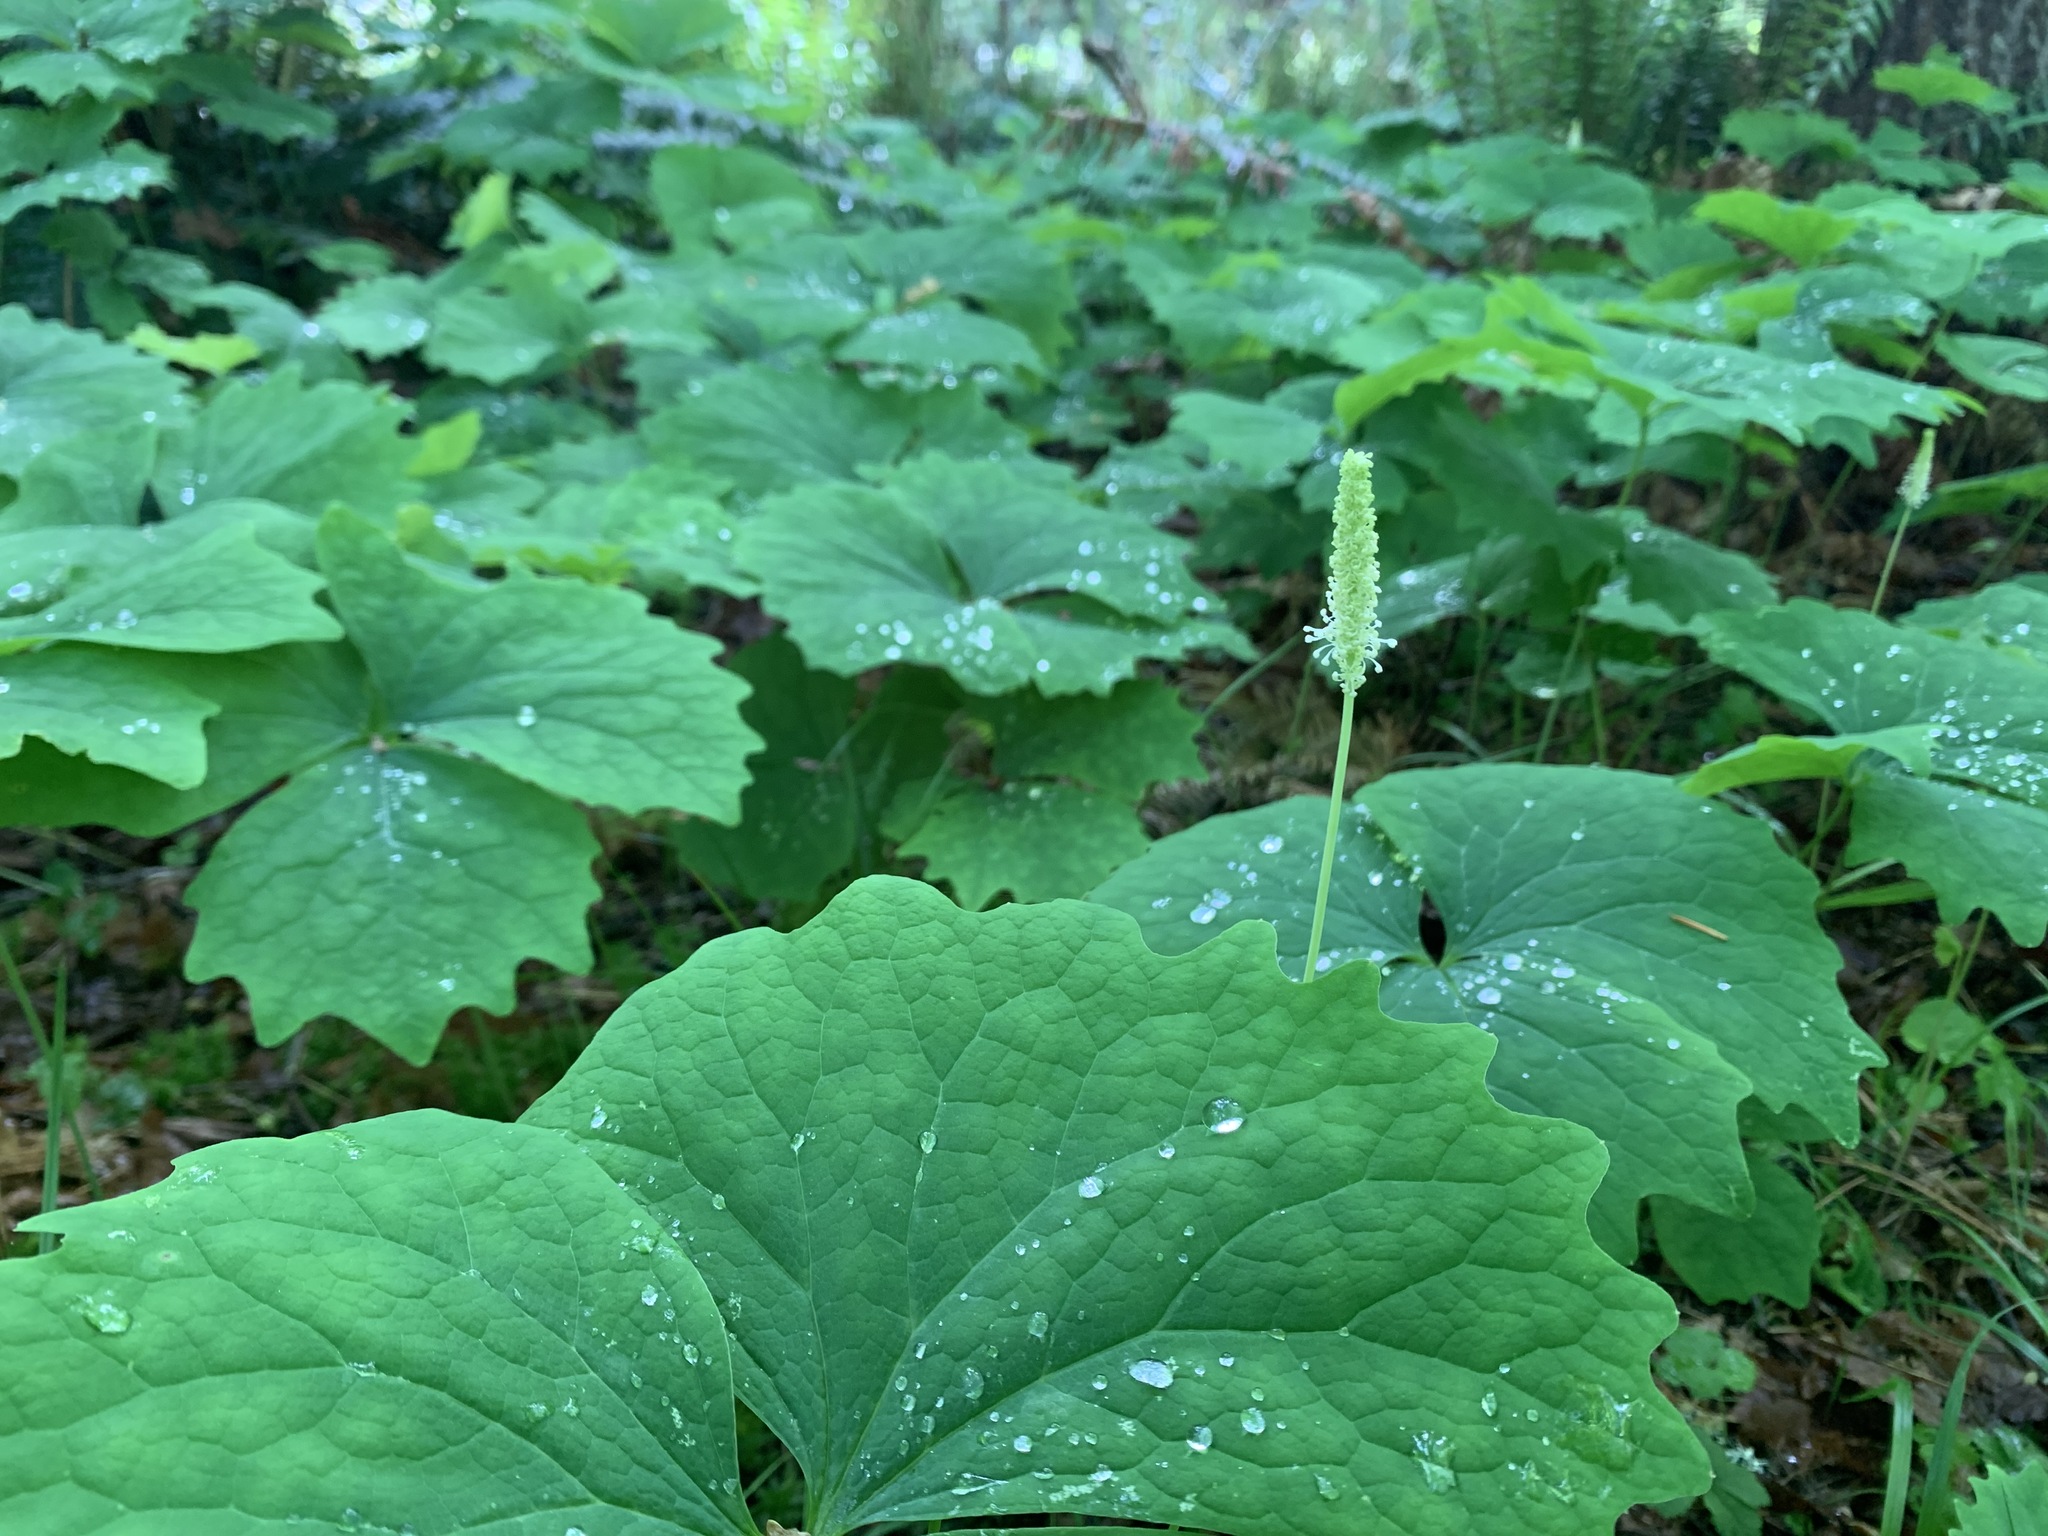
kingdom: Plantae
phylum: Tracheophyta
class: Magnoliopsida
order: Ranunculales
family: Berberidaceae
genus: Achlys
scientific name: Achlys triphylla
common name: Vanilla-leaf
